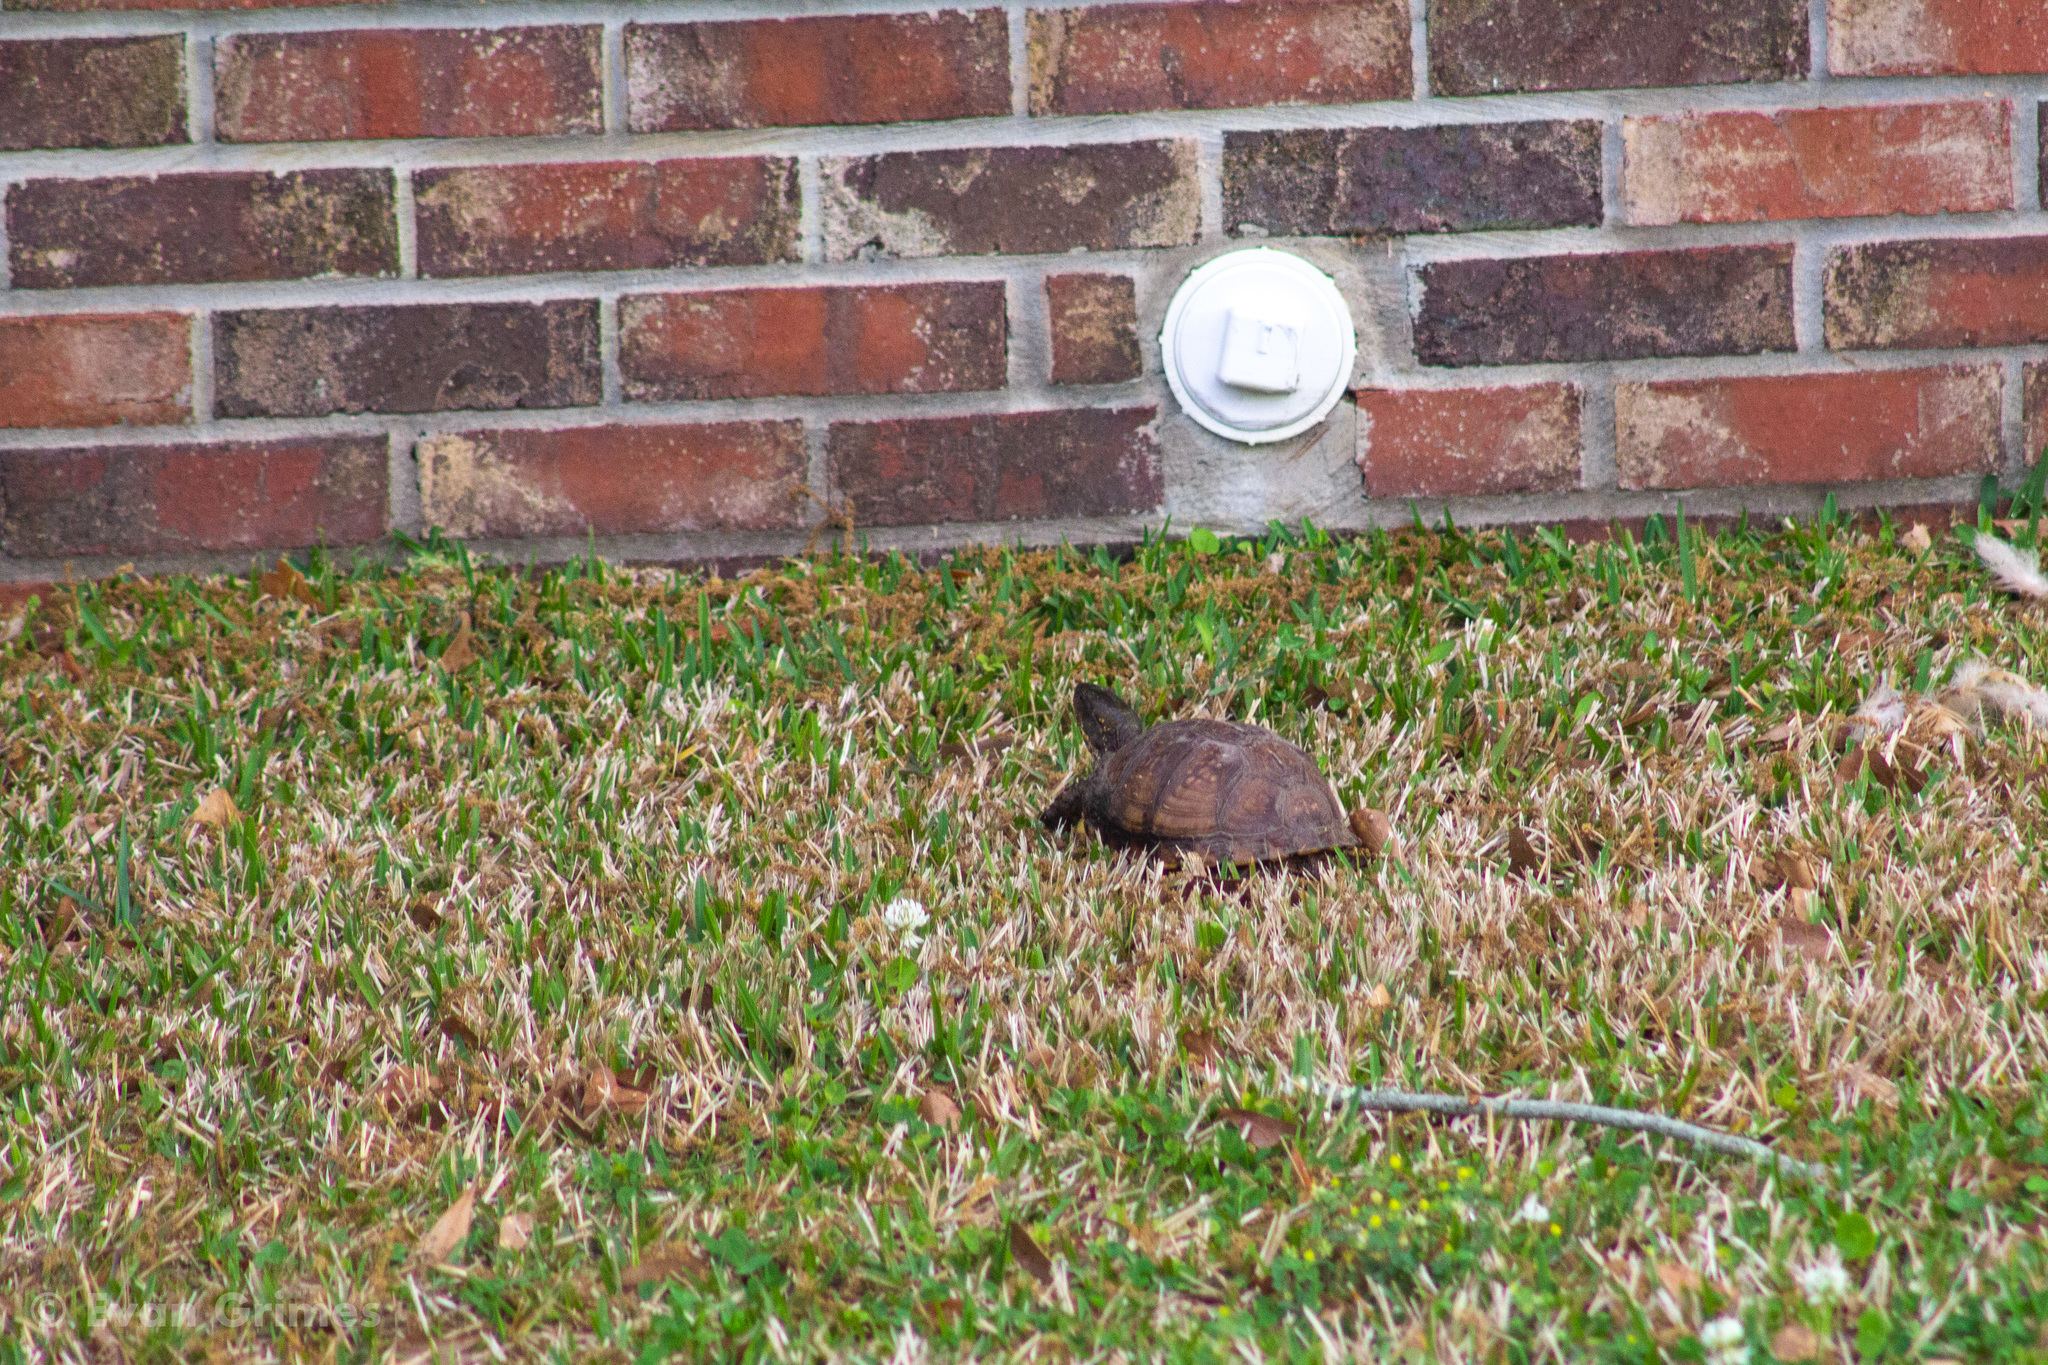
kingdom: Animalia
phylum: Chordata
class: Testudines
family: Emydidae
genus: Terrapene
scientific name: Terrapene carolina
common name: Common box turtle
